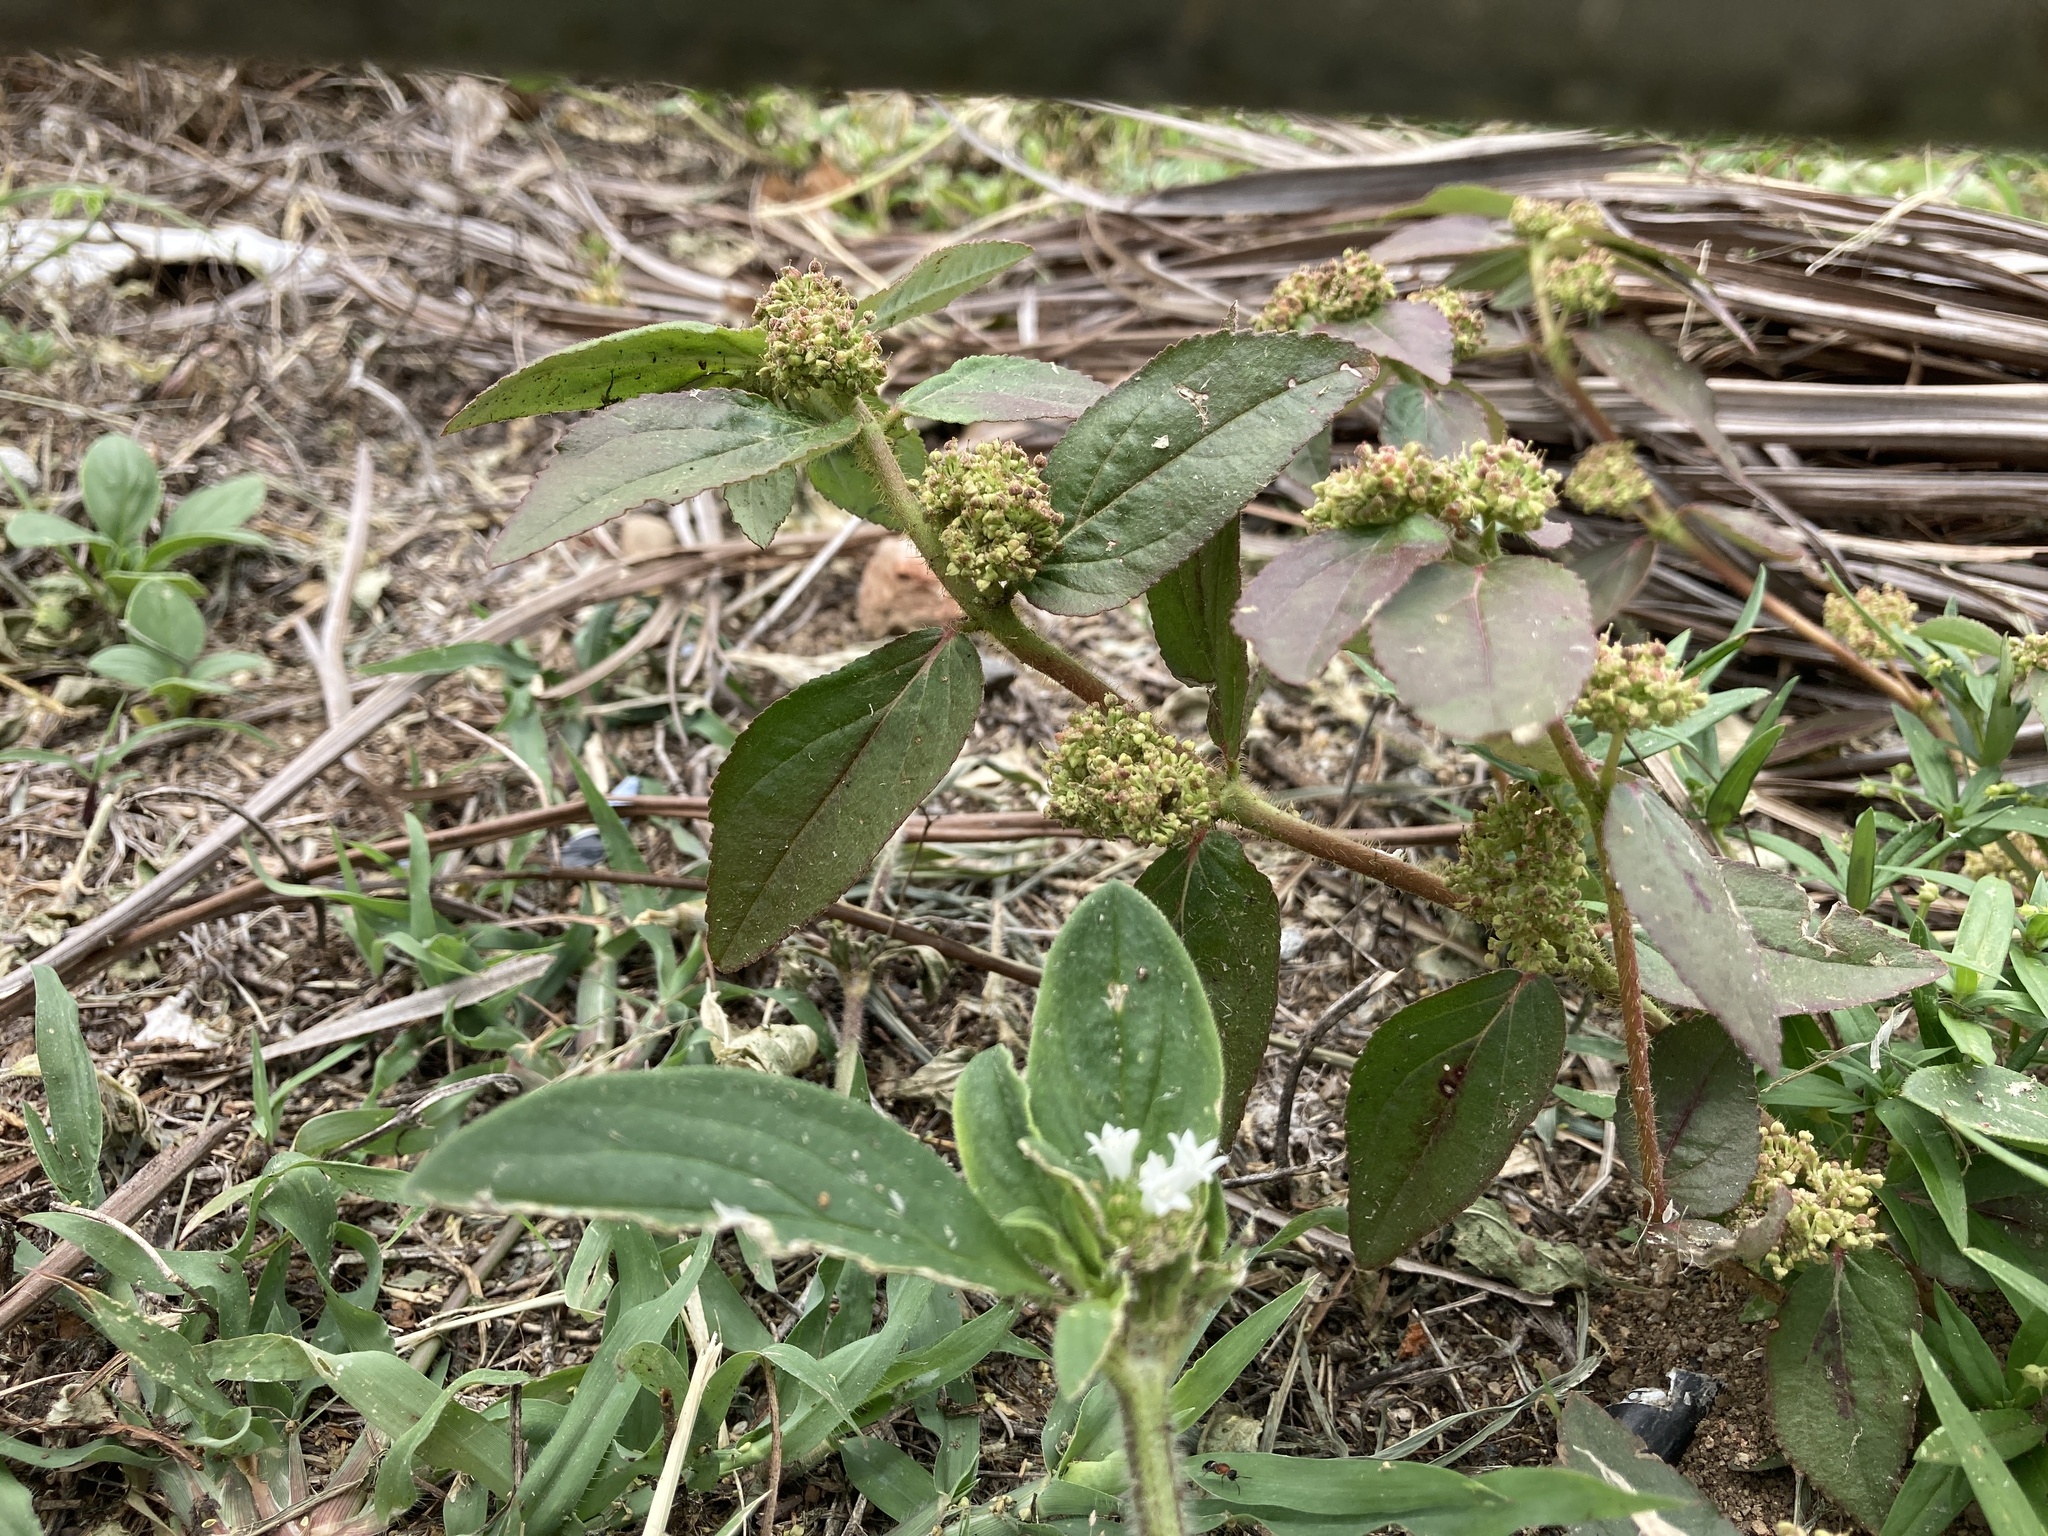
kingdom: Plantae
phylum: Tracheophyta
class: Magnoliopsida
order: Malpighiales
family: Euphorbiaceae
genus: Euphorbia
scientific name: Euphorbia hirta
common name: Pillpod sandmat
